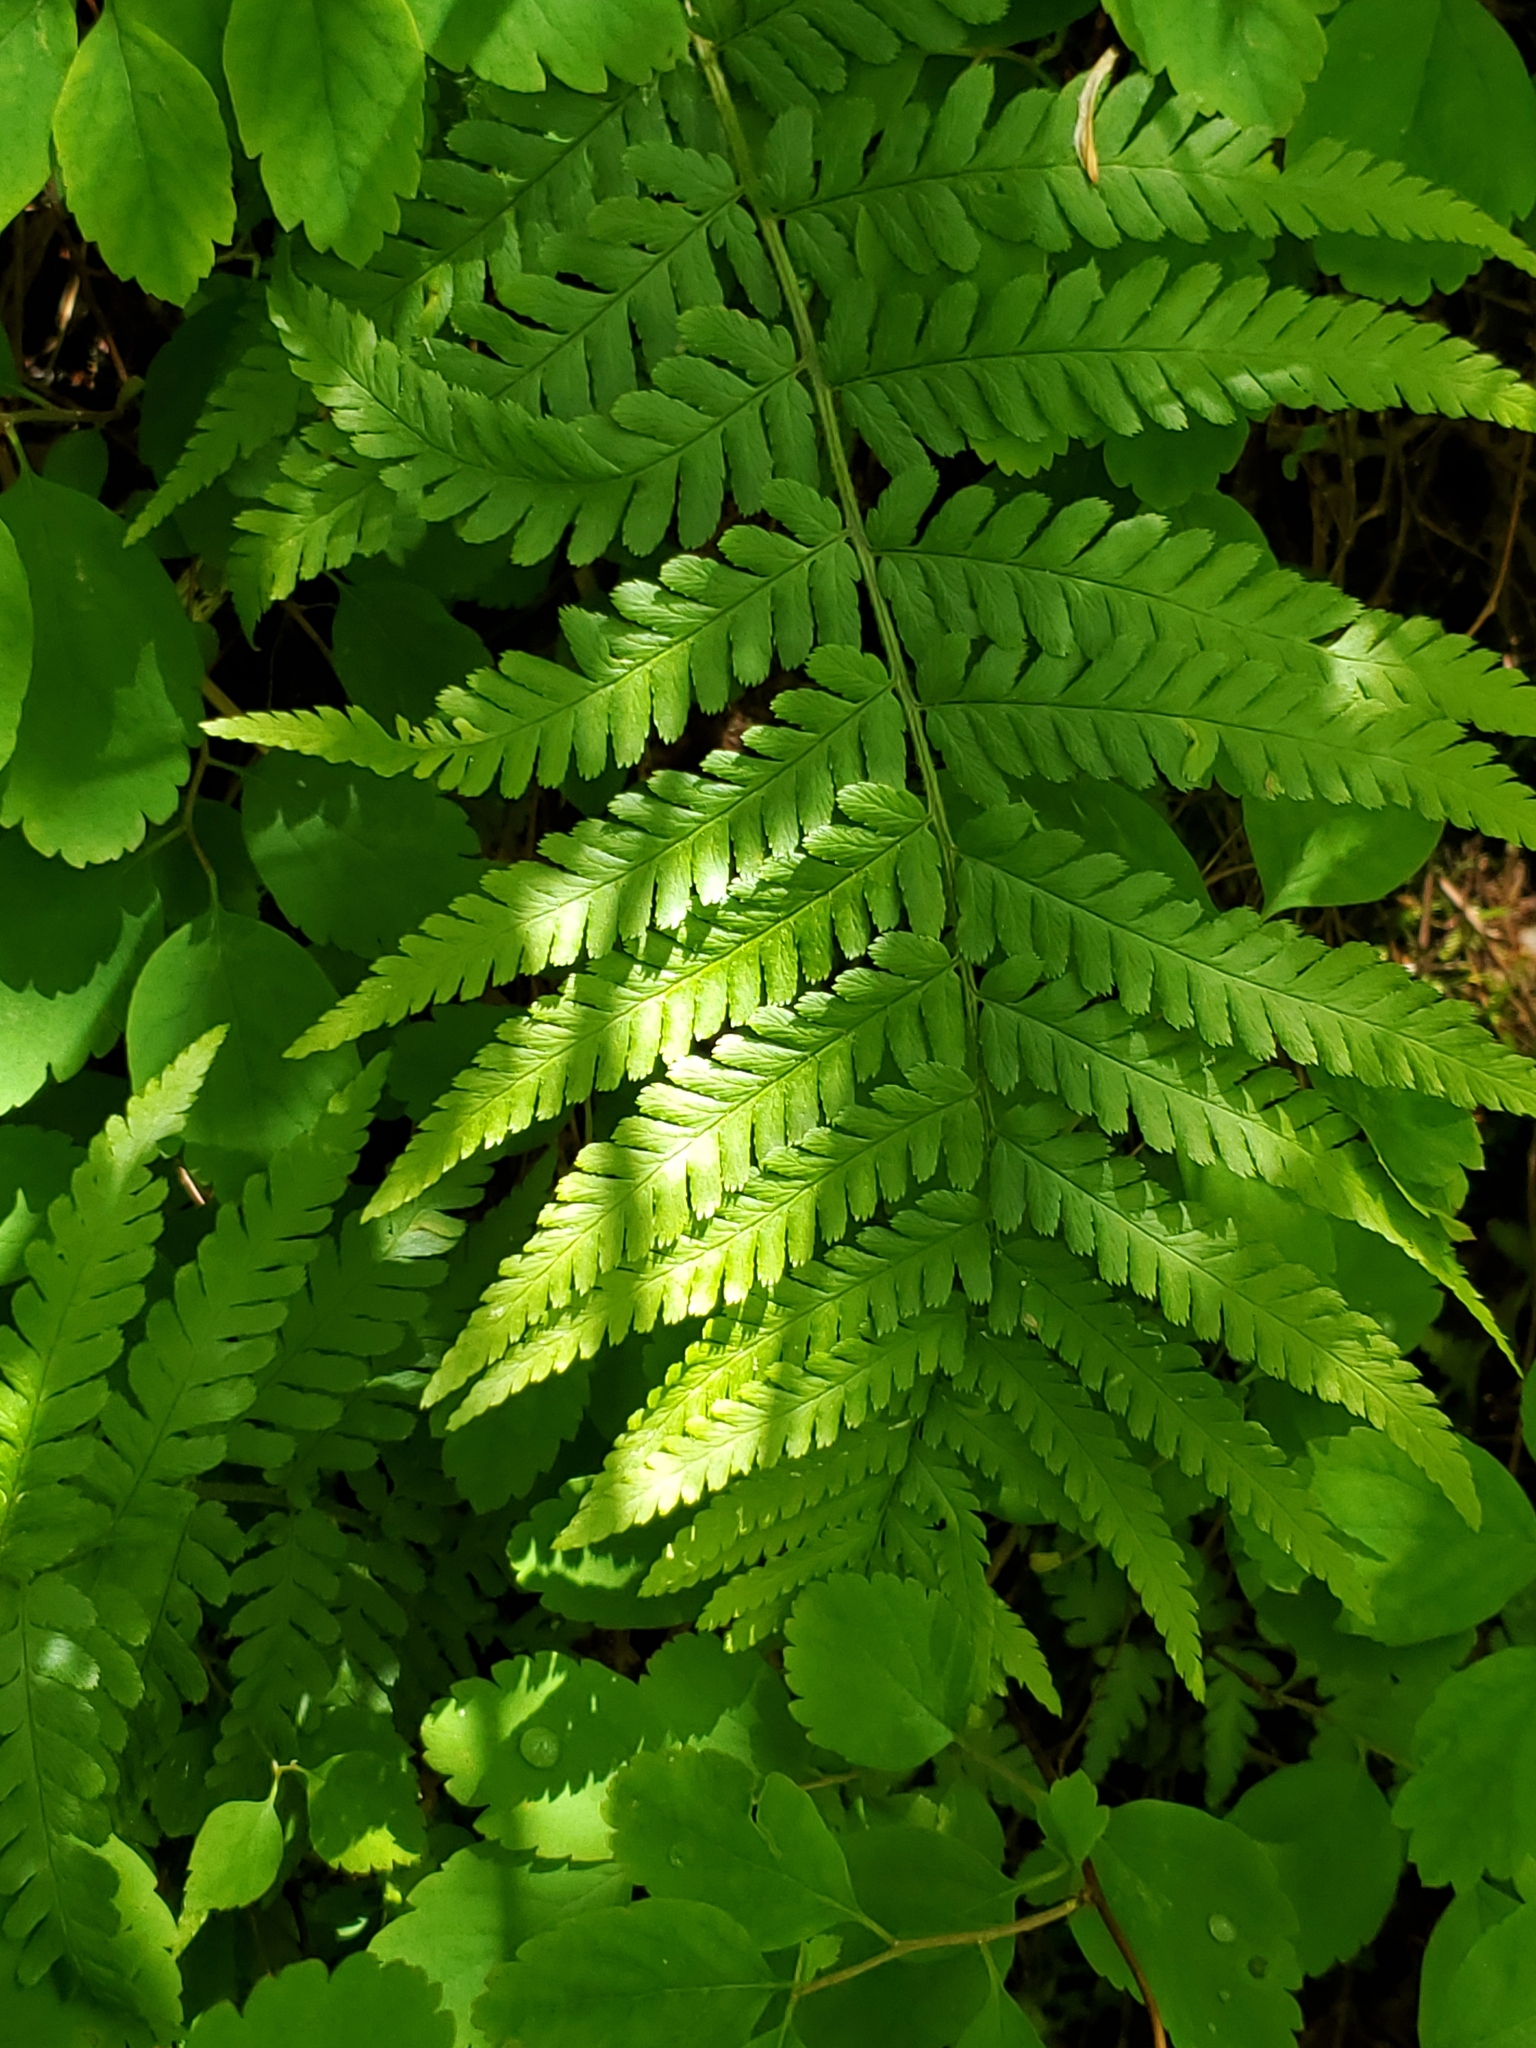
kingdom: Plantae
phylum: Tracheophyta
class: Polypodiopsida
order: Polypodiales
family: Dryopteridaceae
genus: Dryopteris
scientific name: Dryopteris filix-mas
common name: Male fern
